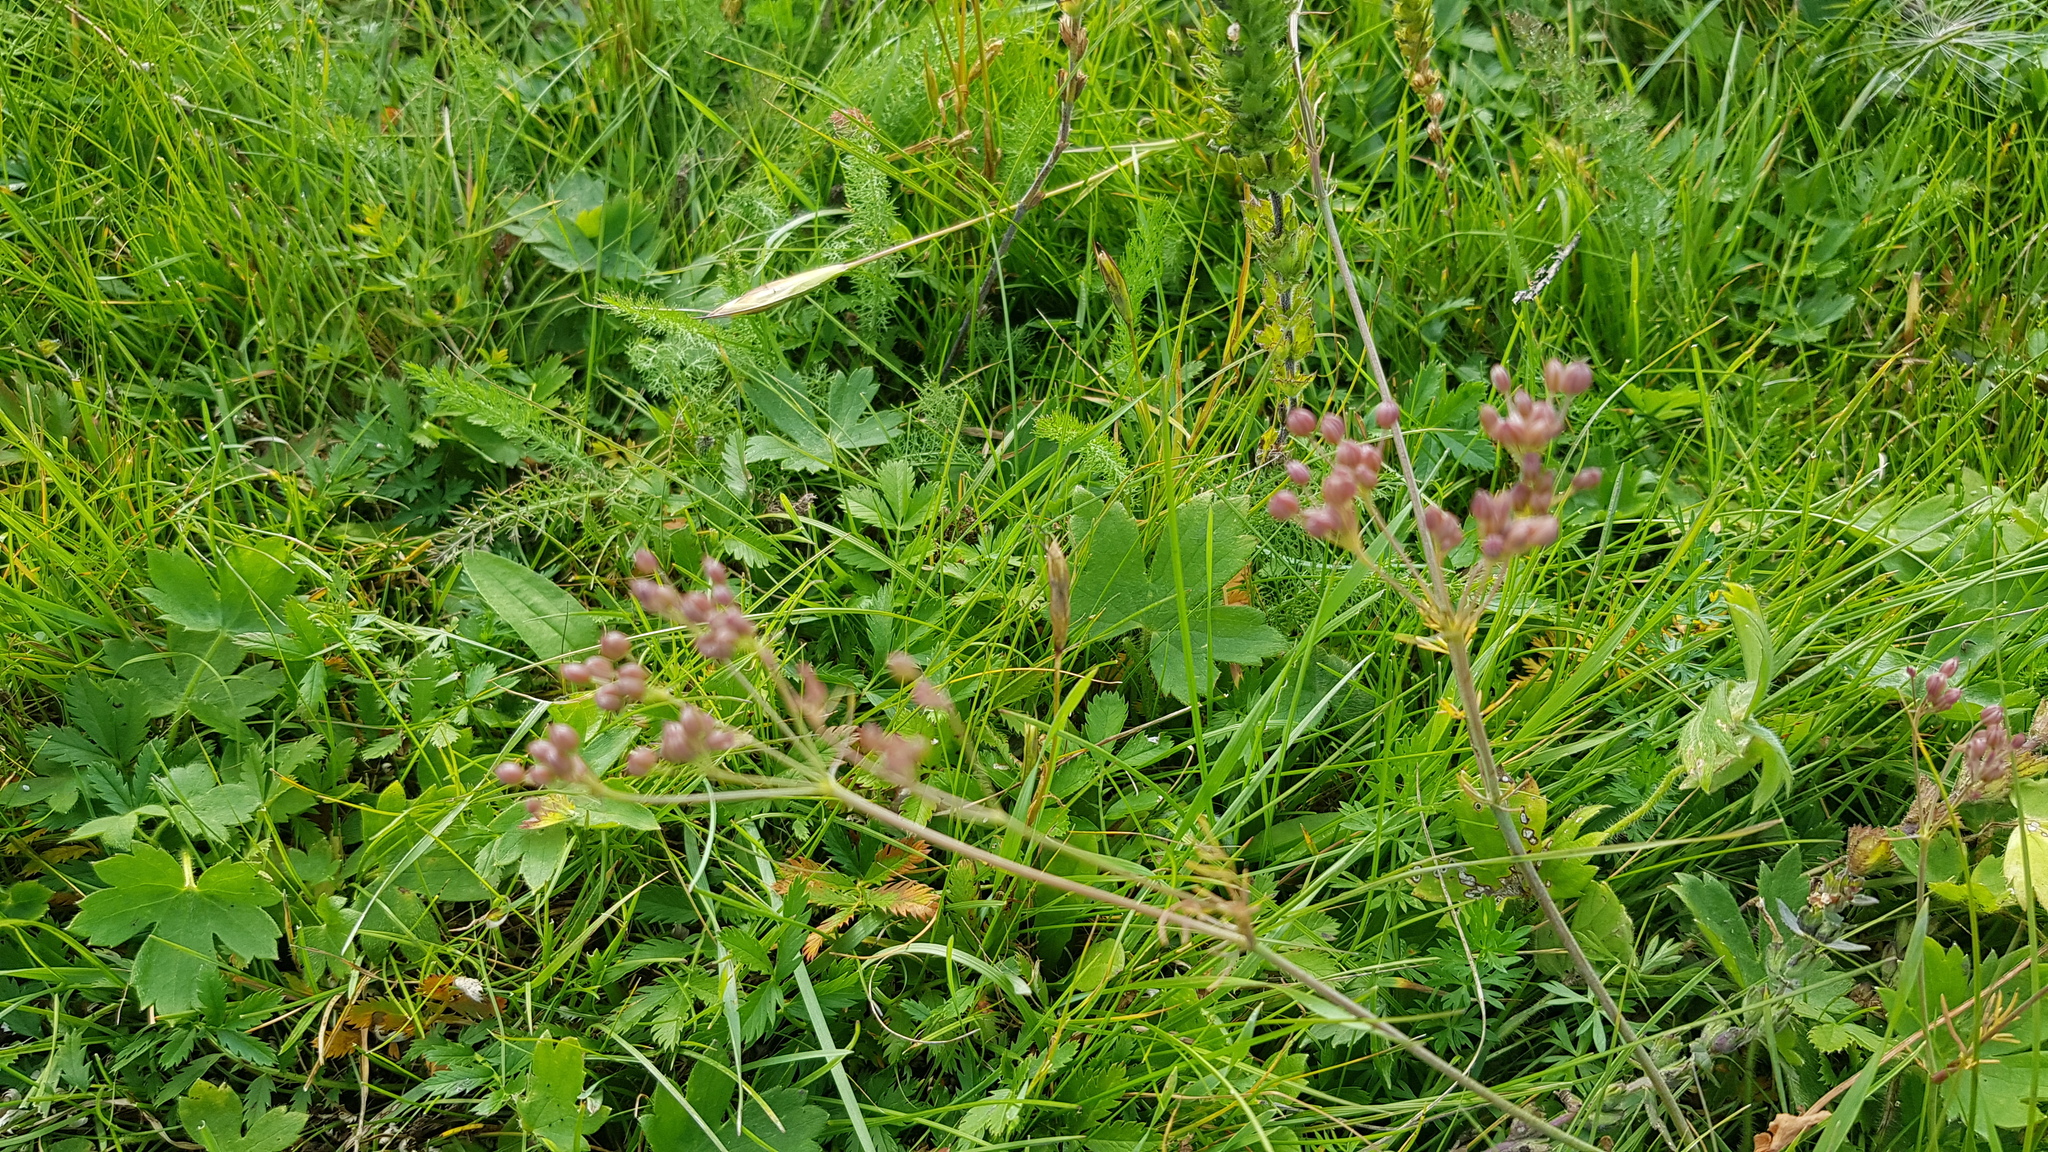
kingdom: Plantae
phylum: Tracheophyta
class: Magnoliopsida
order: Apiales
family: Apiaceae
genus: Carum
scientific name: Carum carvi
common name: Caraway
